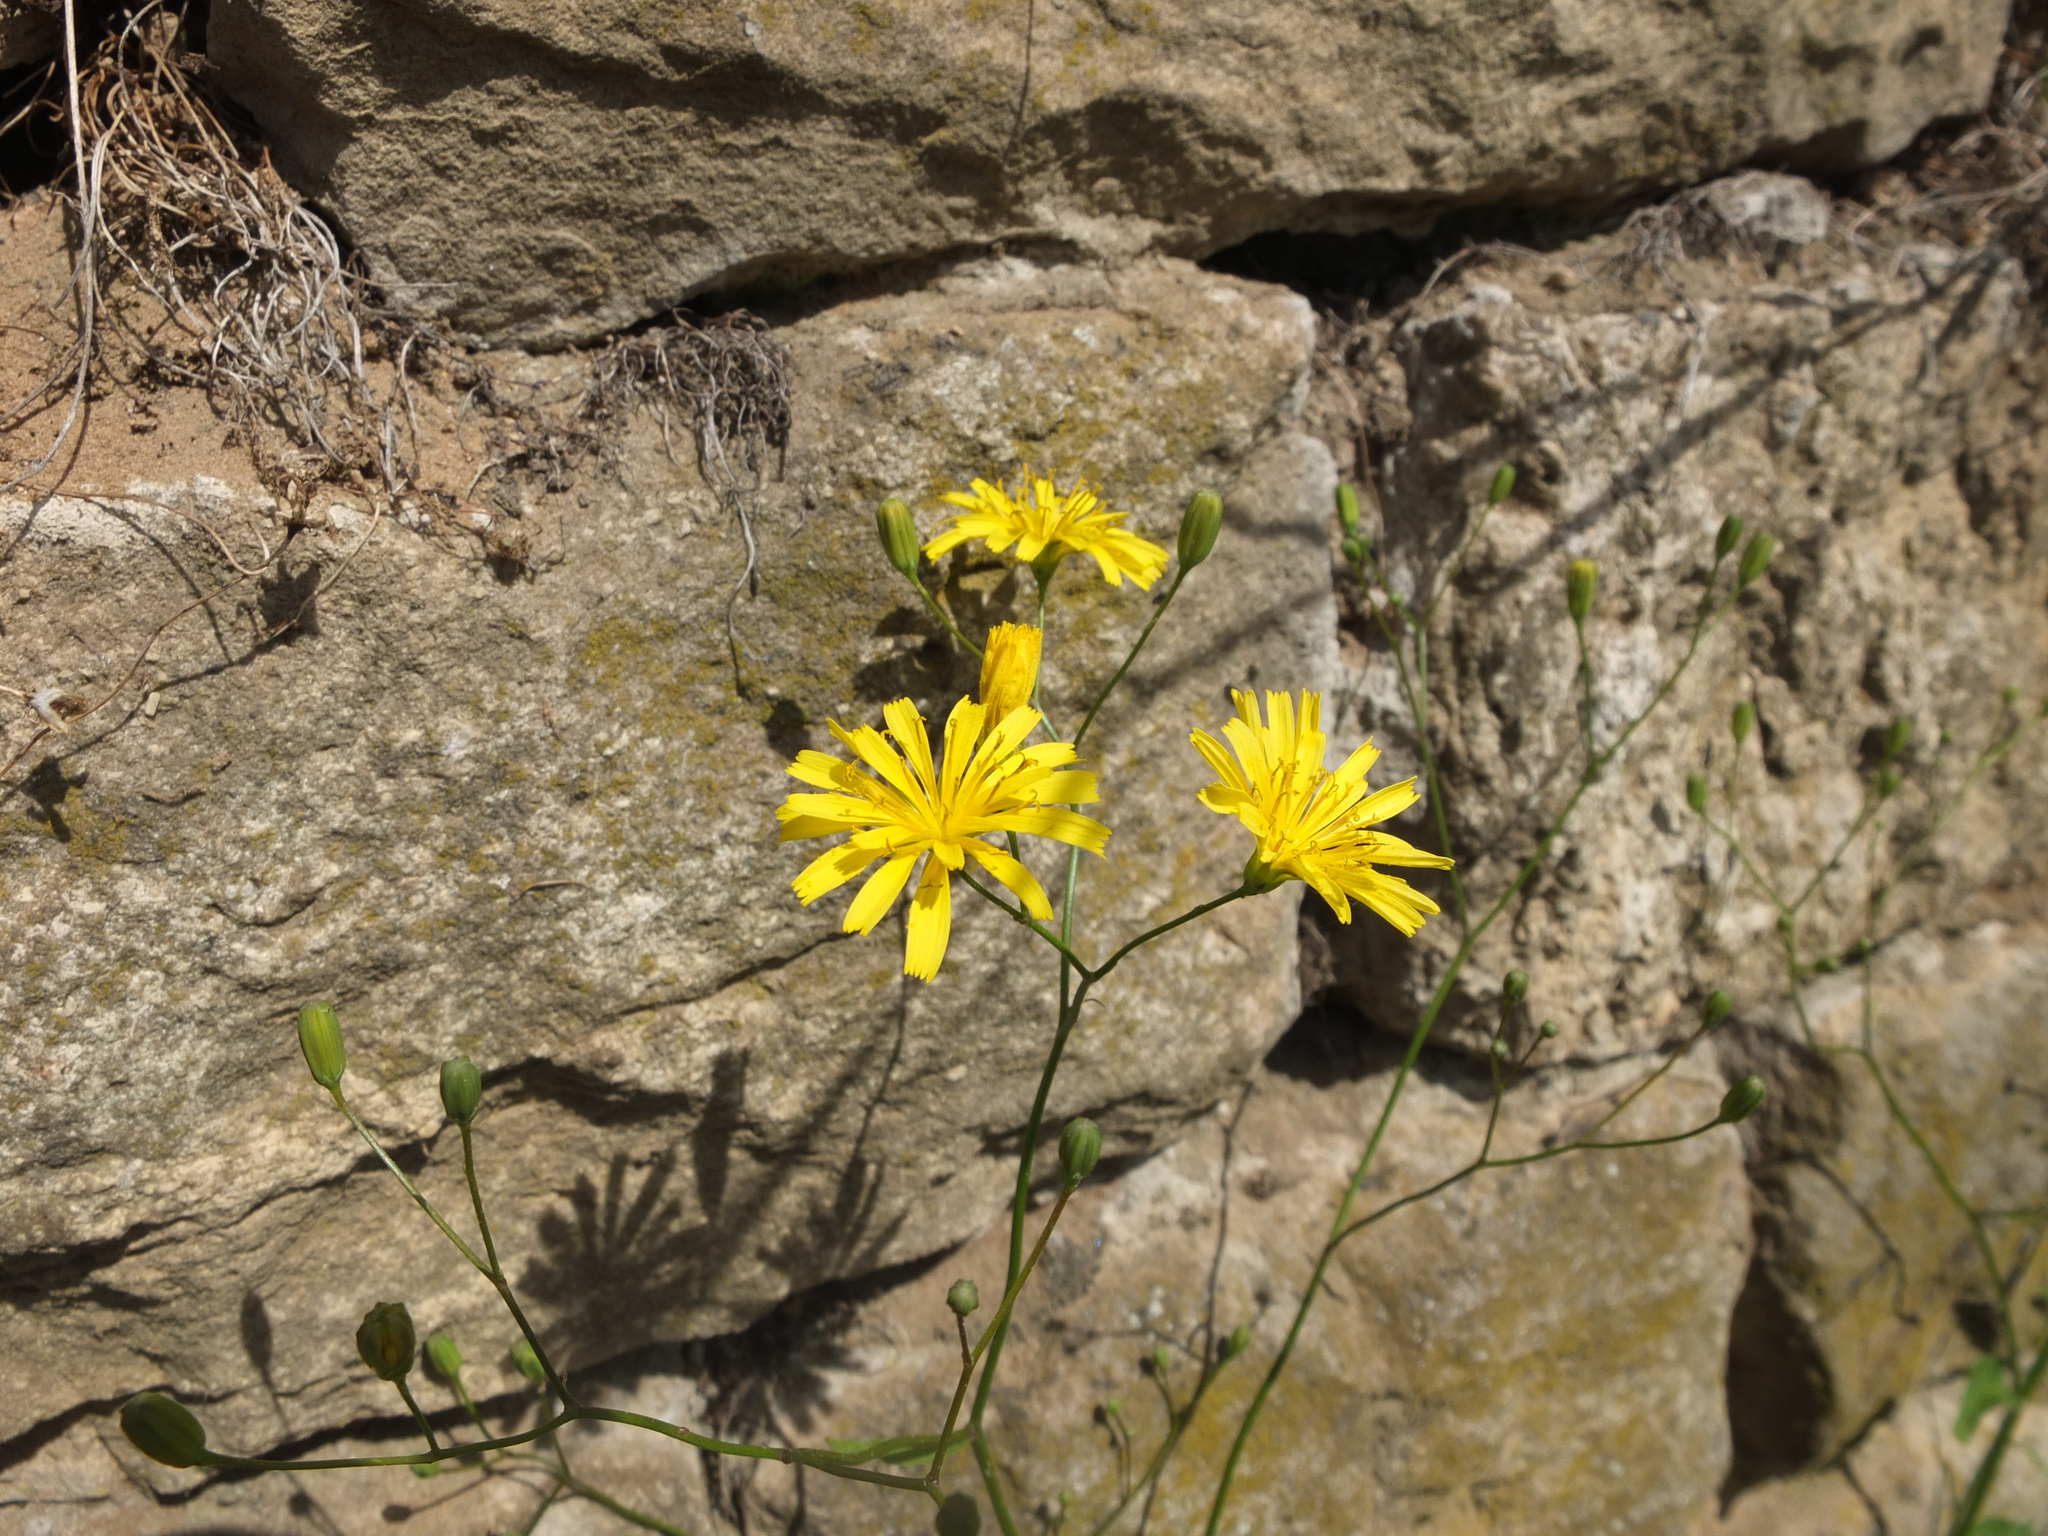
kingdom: Plantae
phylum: Tracheophyta
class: Magnoliopsida
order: Asterales
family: Asteraceae
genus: Lapsana
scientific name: Lapsana communis
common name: Nipplewort
